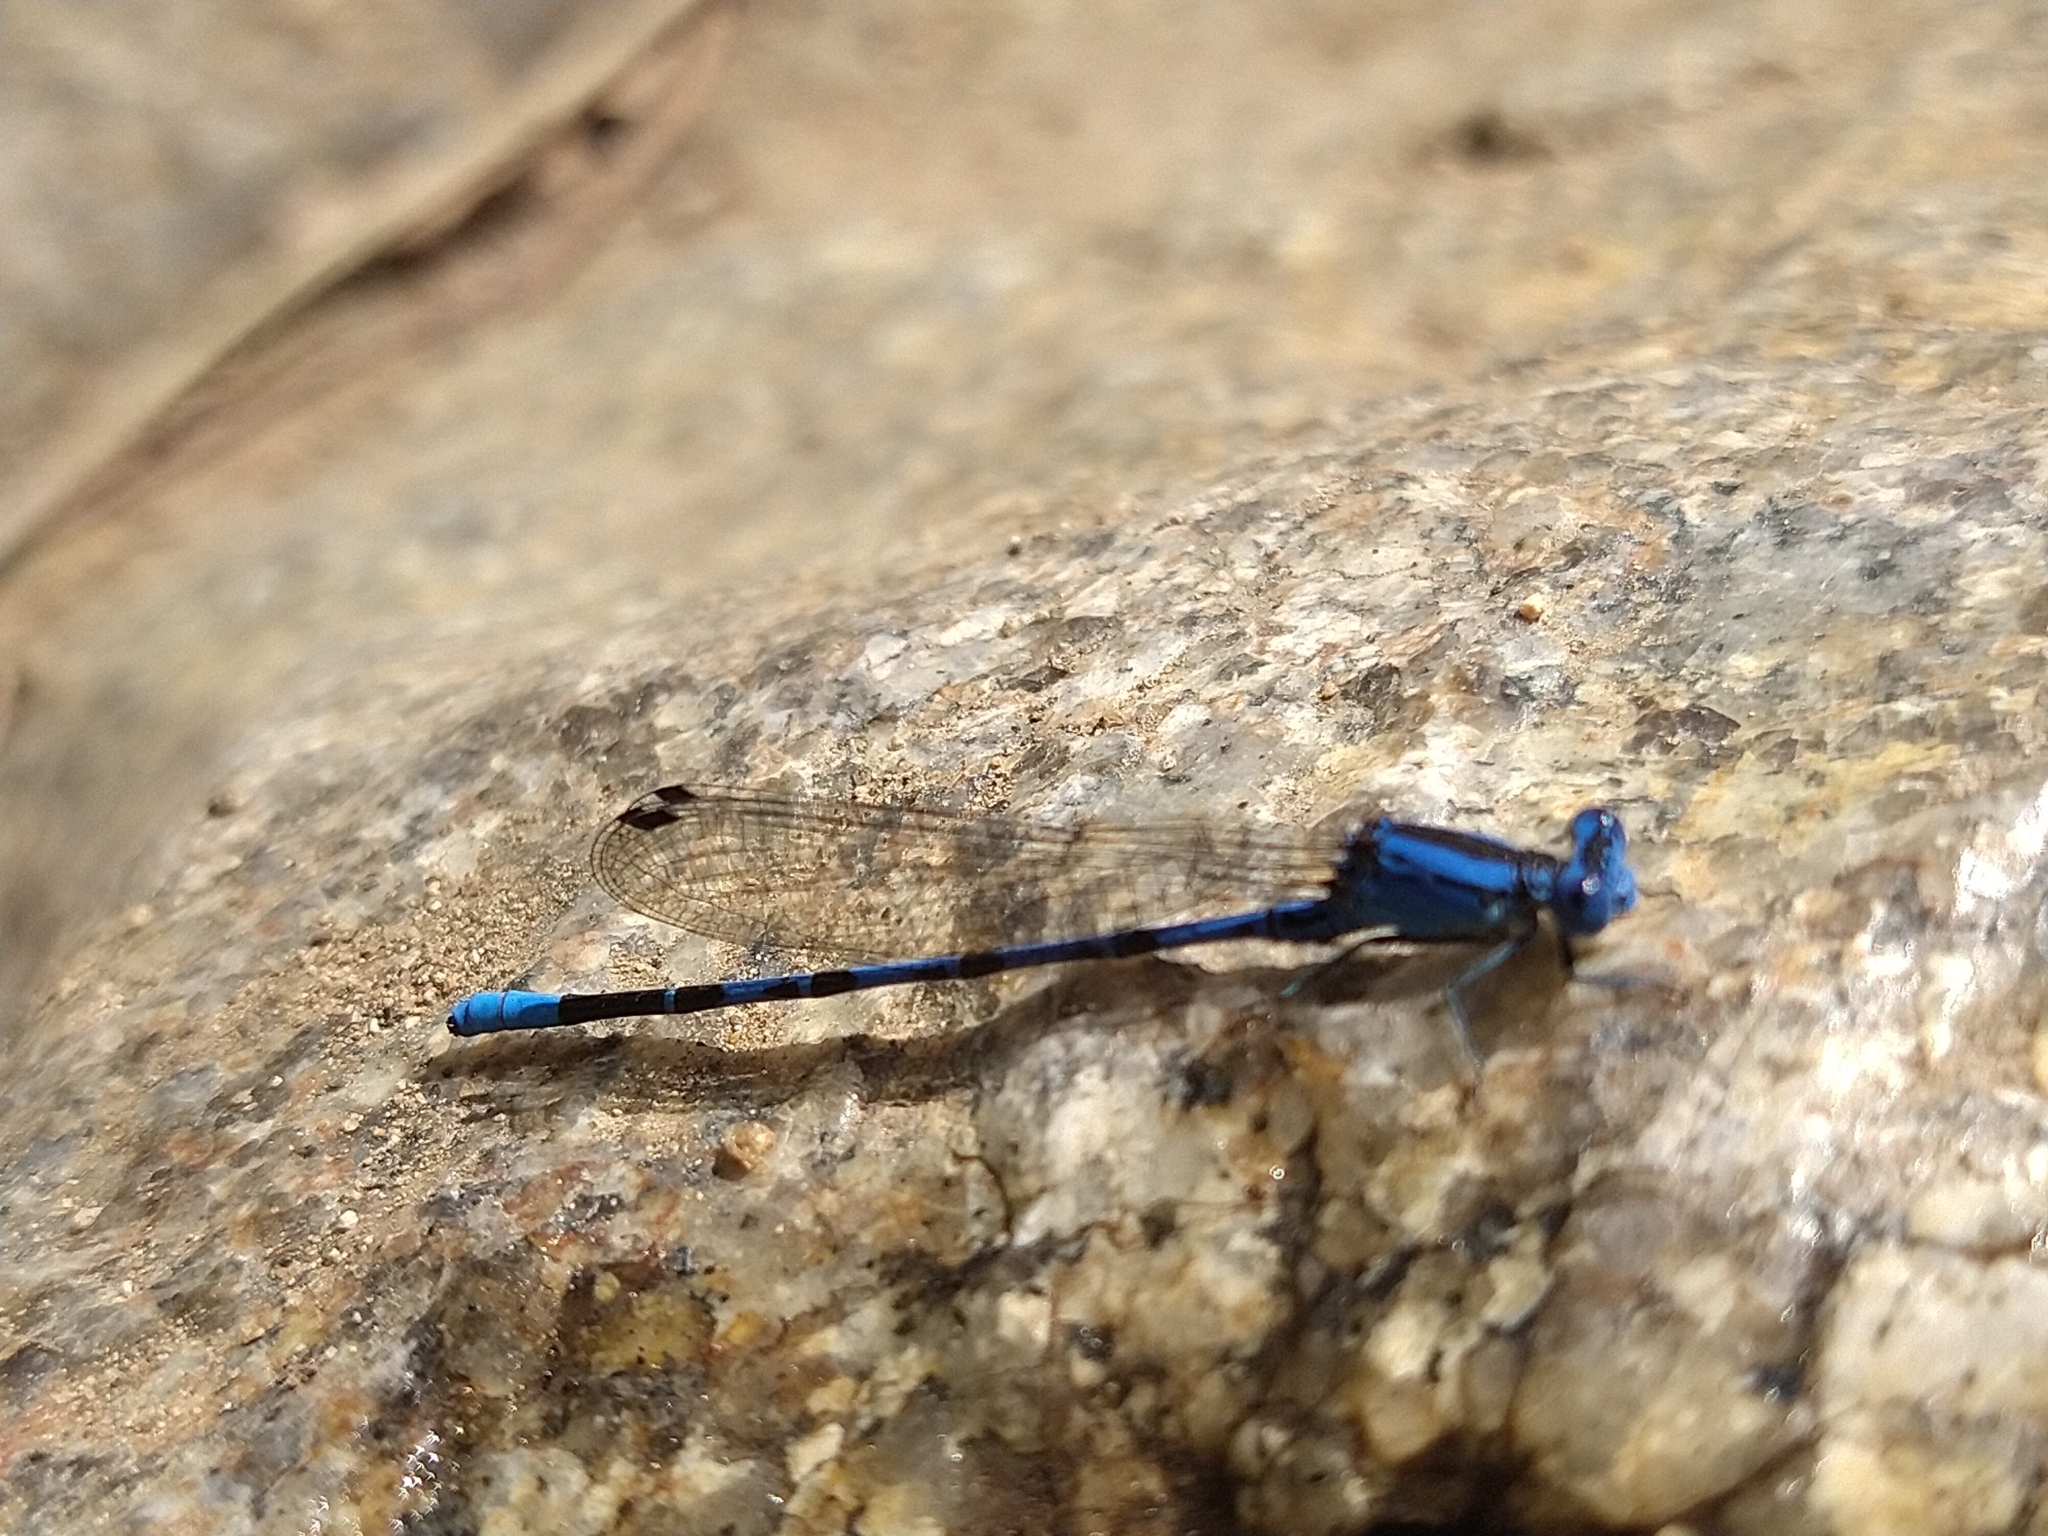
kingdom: Animalia
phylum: Arthropoda
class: Insecta
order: Odonata
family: Coenagrionidae
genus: Argia
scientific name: Argia agrioides
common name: California dancer
